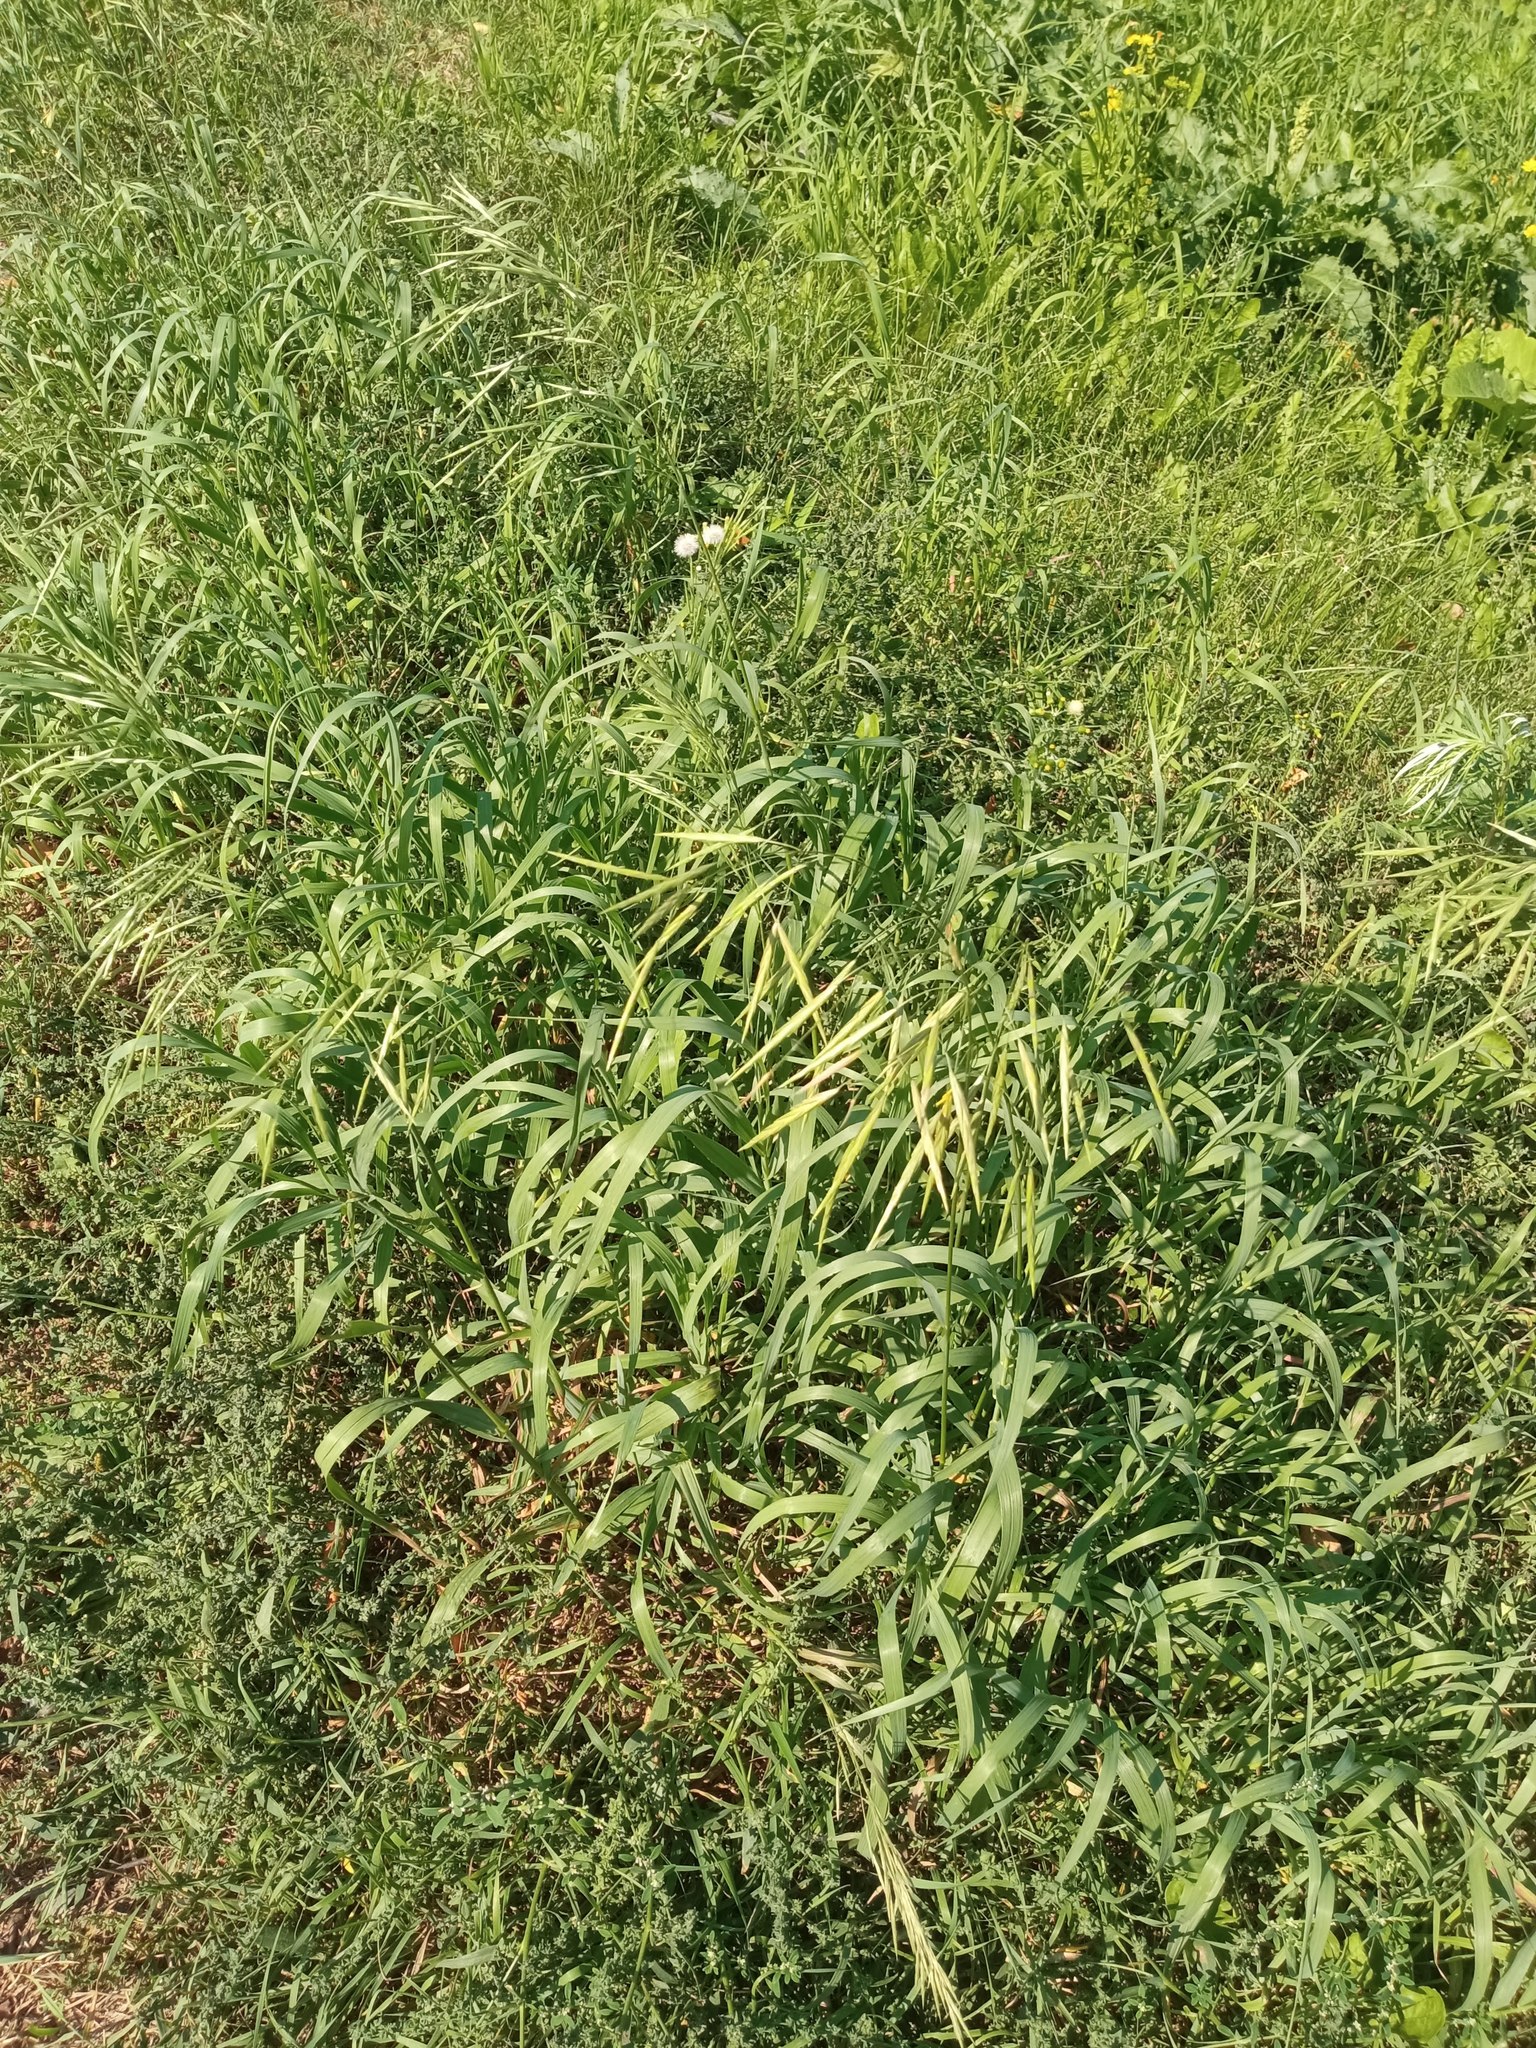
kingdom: Plantae
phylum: Tracheophyta
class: Liliopsida
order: Poales
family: Poaceae
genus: Bromus
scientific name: Bromus inermis
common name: Smooth brome
